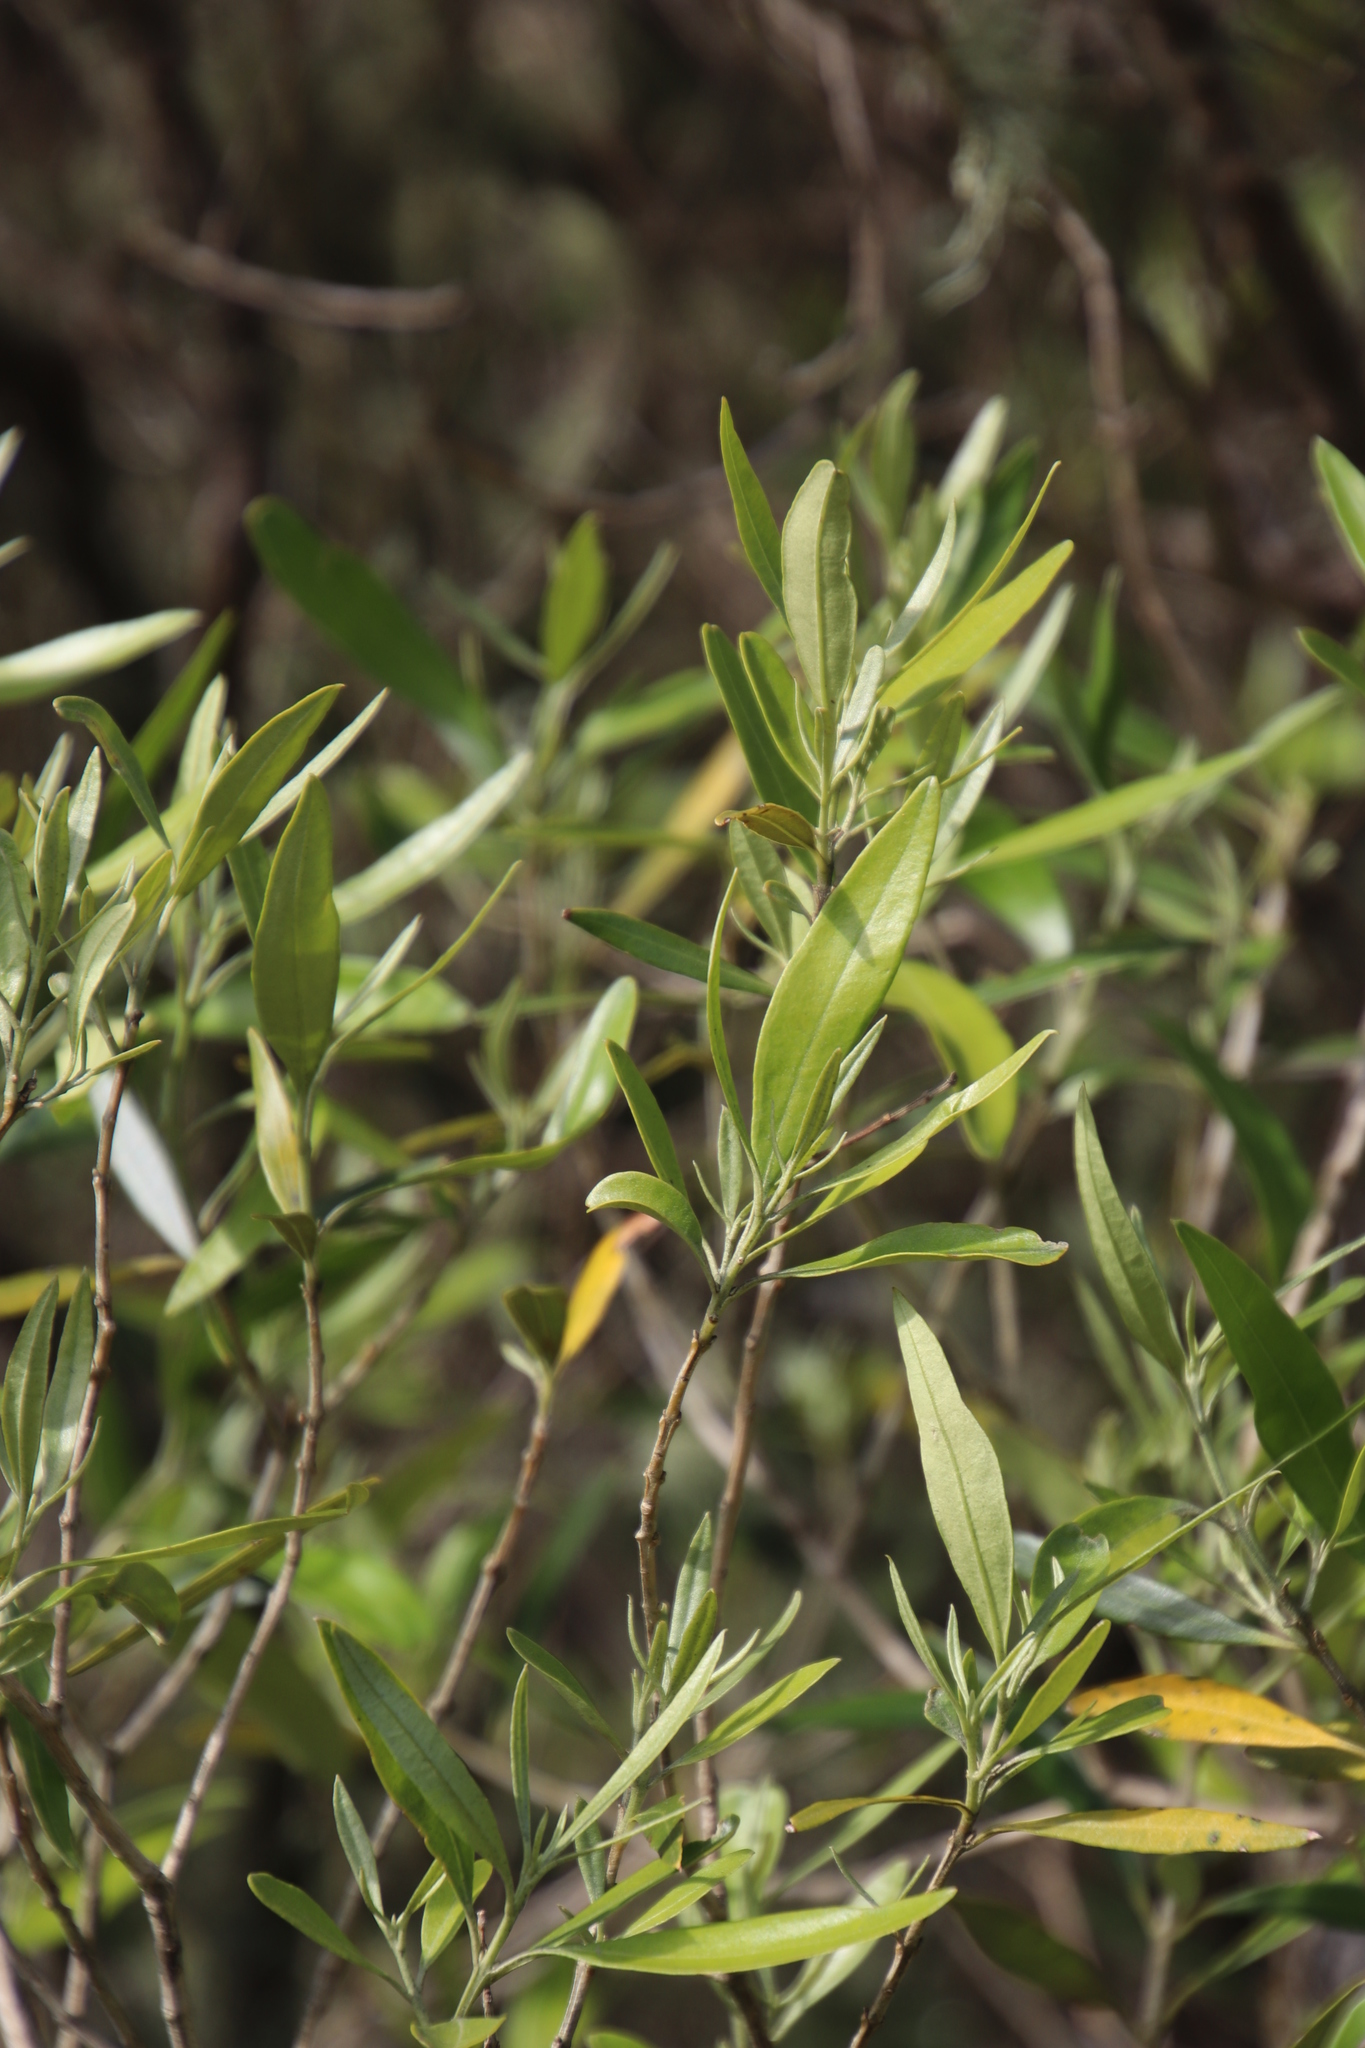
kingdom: Plantae
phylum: Tracheophyta
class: Magnoliopsida
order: Lamiales
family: Oleaceae
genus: Olea
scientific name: Olea europaea
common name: Olive
